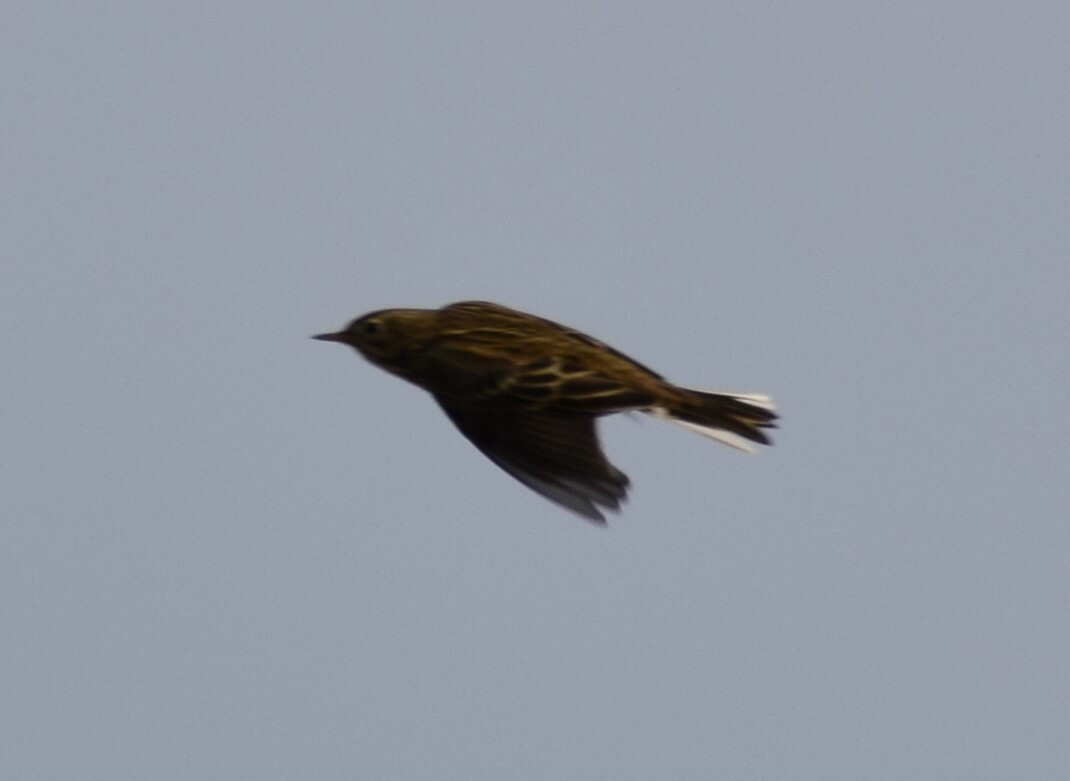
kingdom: Animalia
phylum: Chordata
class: Aves
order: Passeriformes
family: Motacillidae
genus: Anthus
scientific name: Anthus pratensis
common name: Meadow pipit
